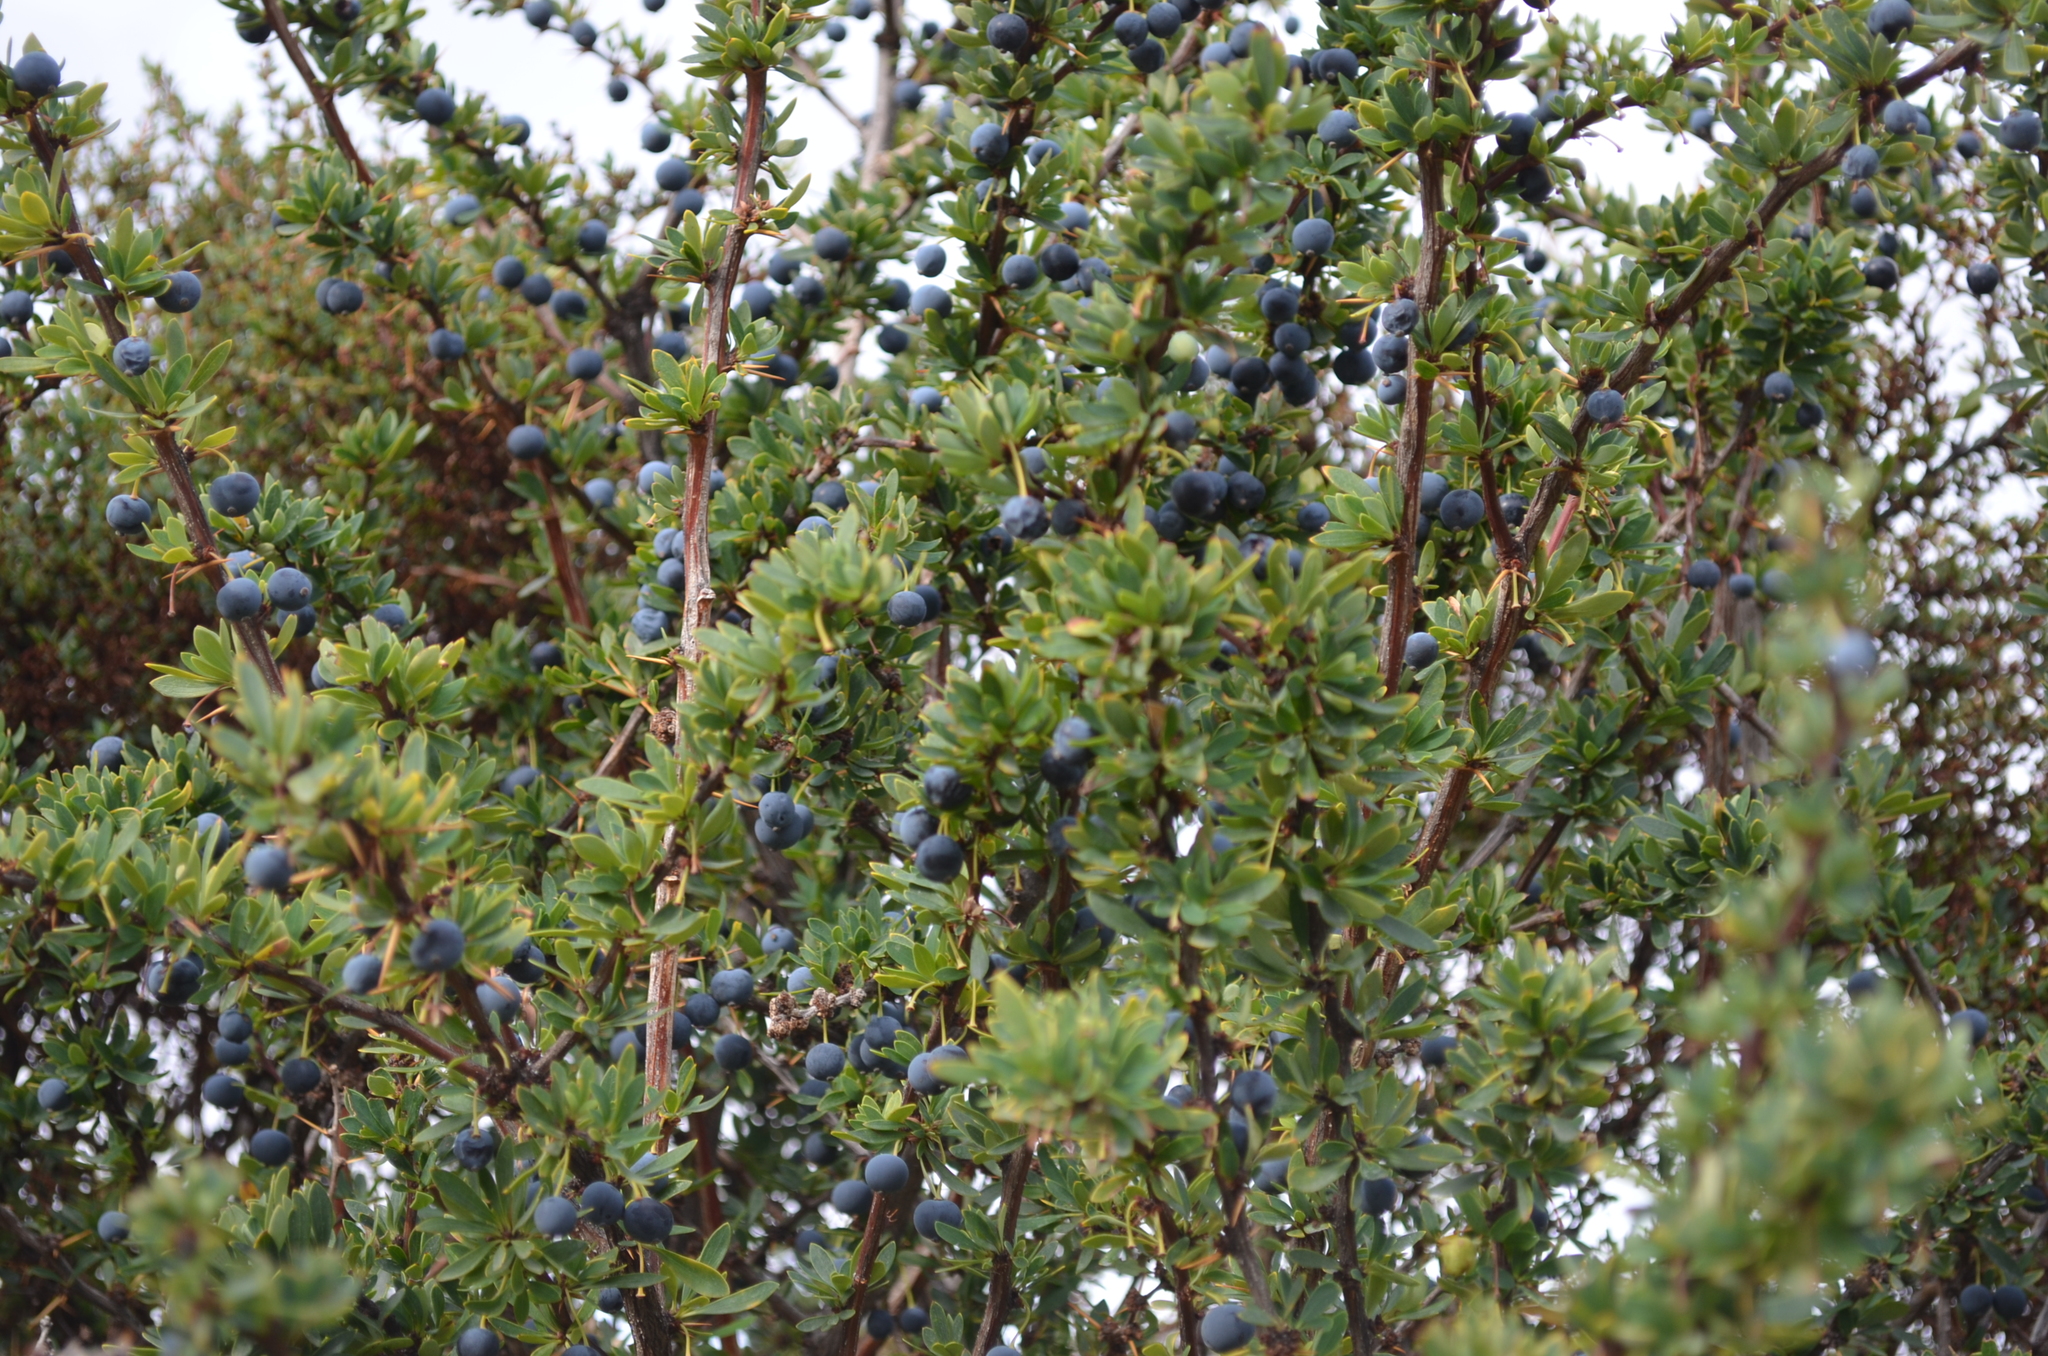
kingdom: Plantae
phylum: Tracheophyta
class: Magnoliopsida
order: Ranunculales
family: Berberidaceae
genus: Berberis
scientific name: Berberis microphylla
